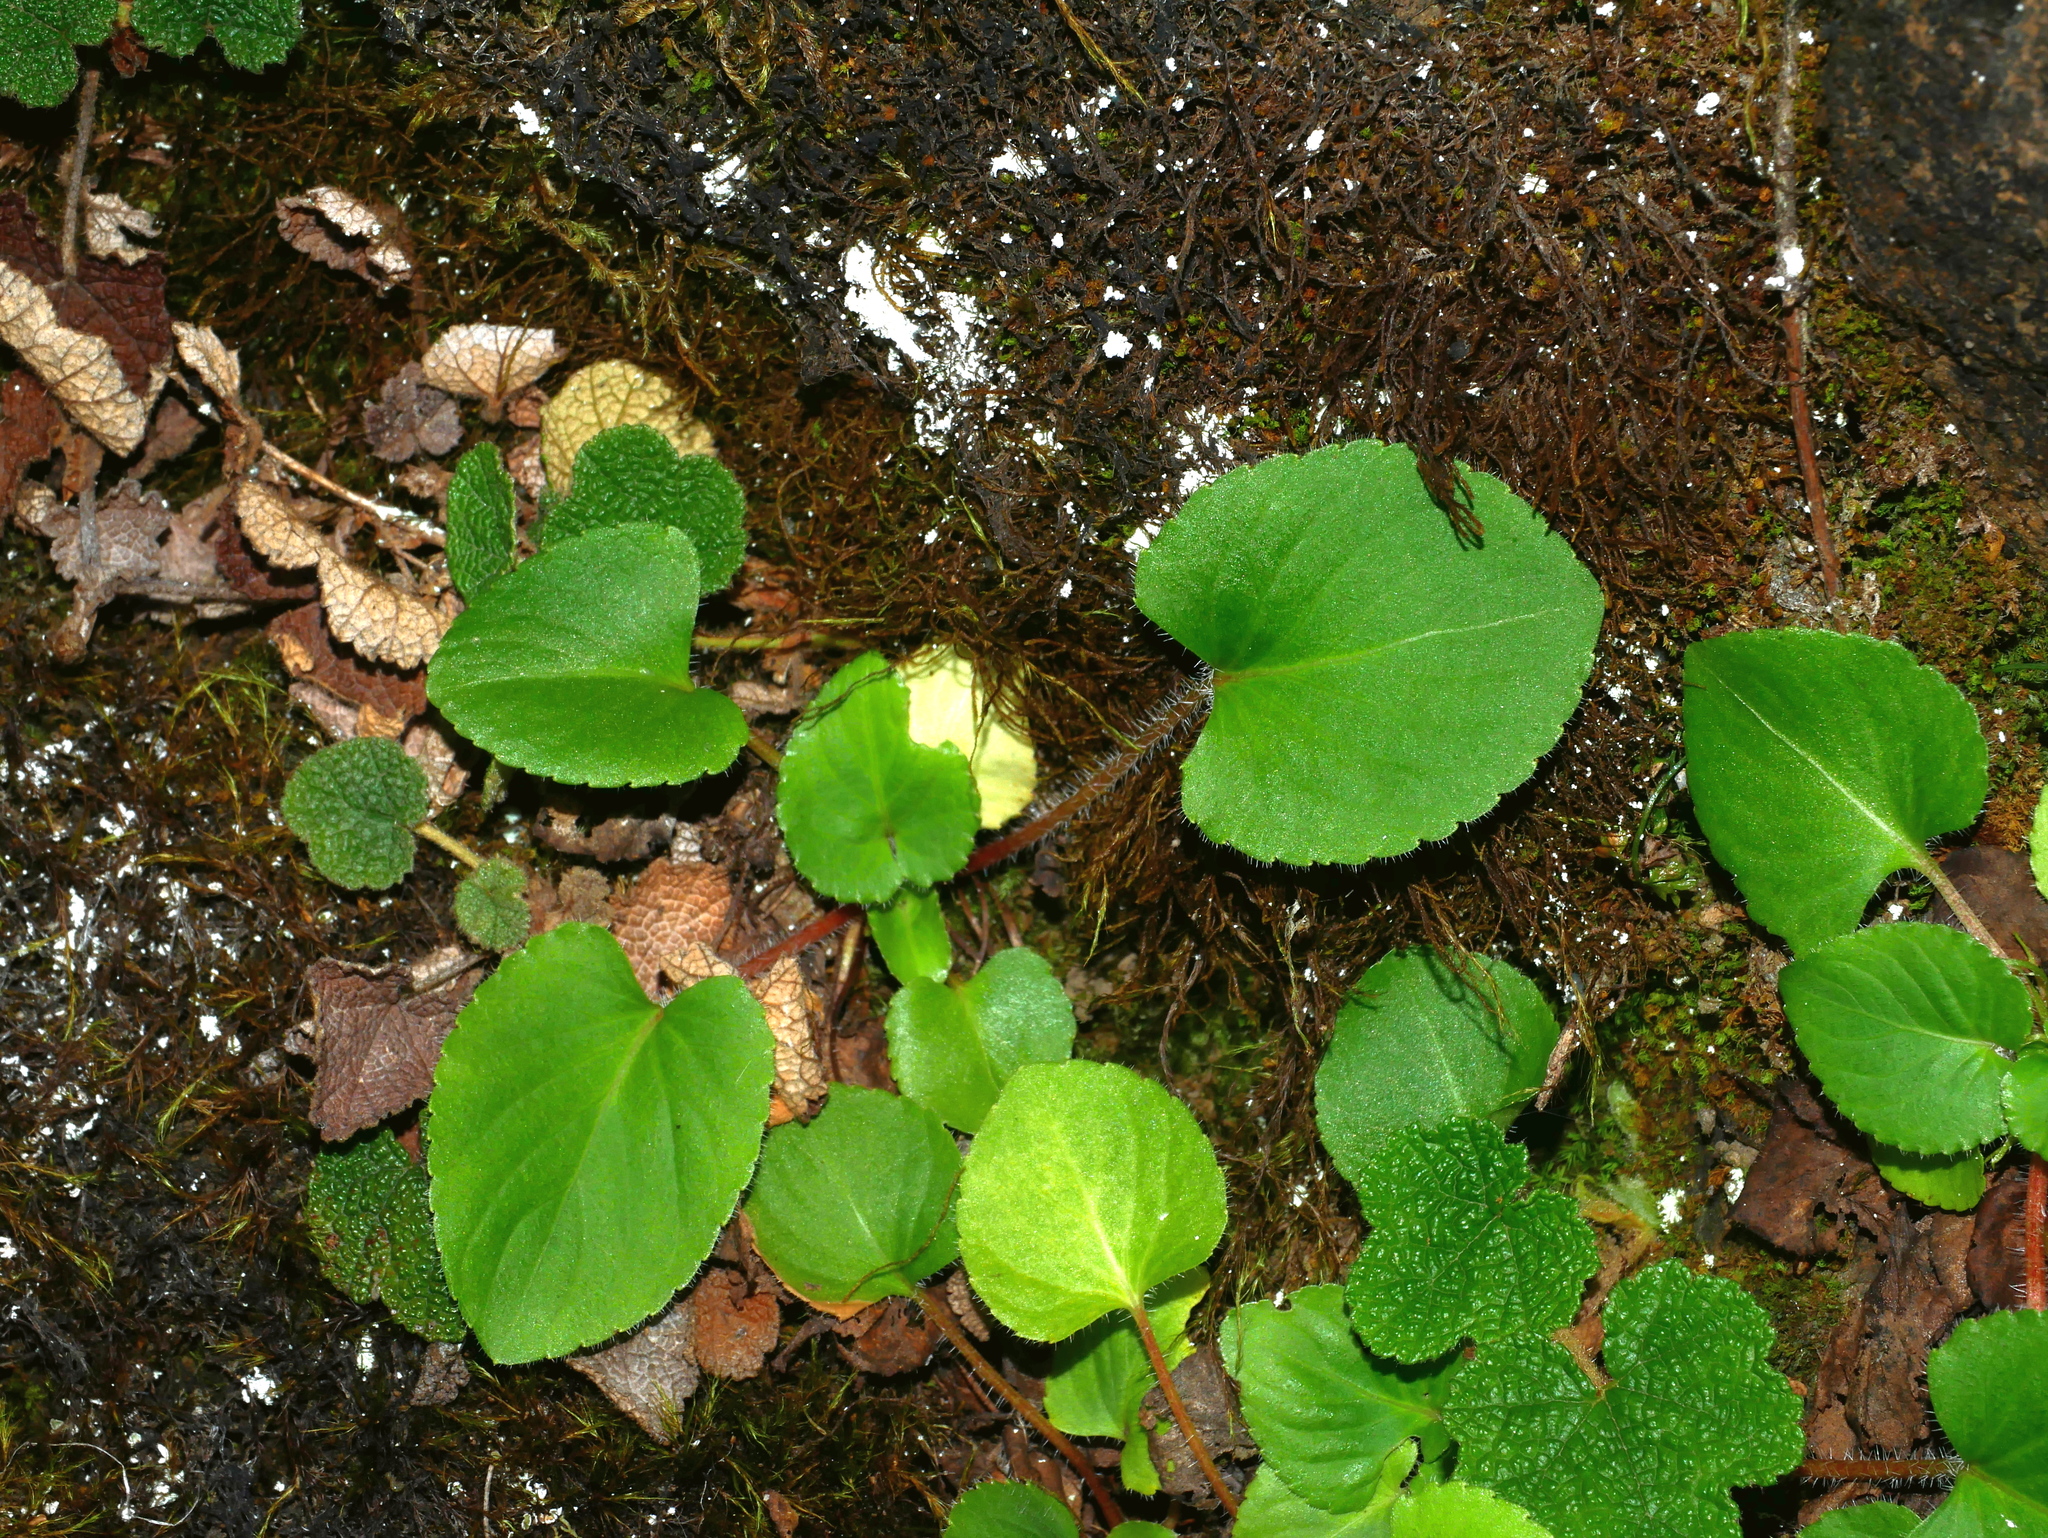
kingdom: Plantae
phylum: Tracheophyta
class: Magnoliopsida
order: Malpighiales
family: Violaceae
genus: Viola
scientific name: Viola adenothrix
